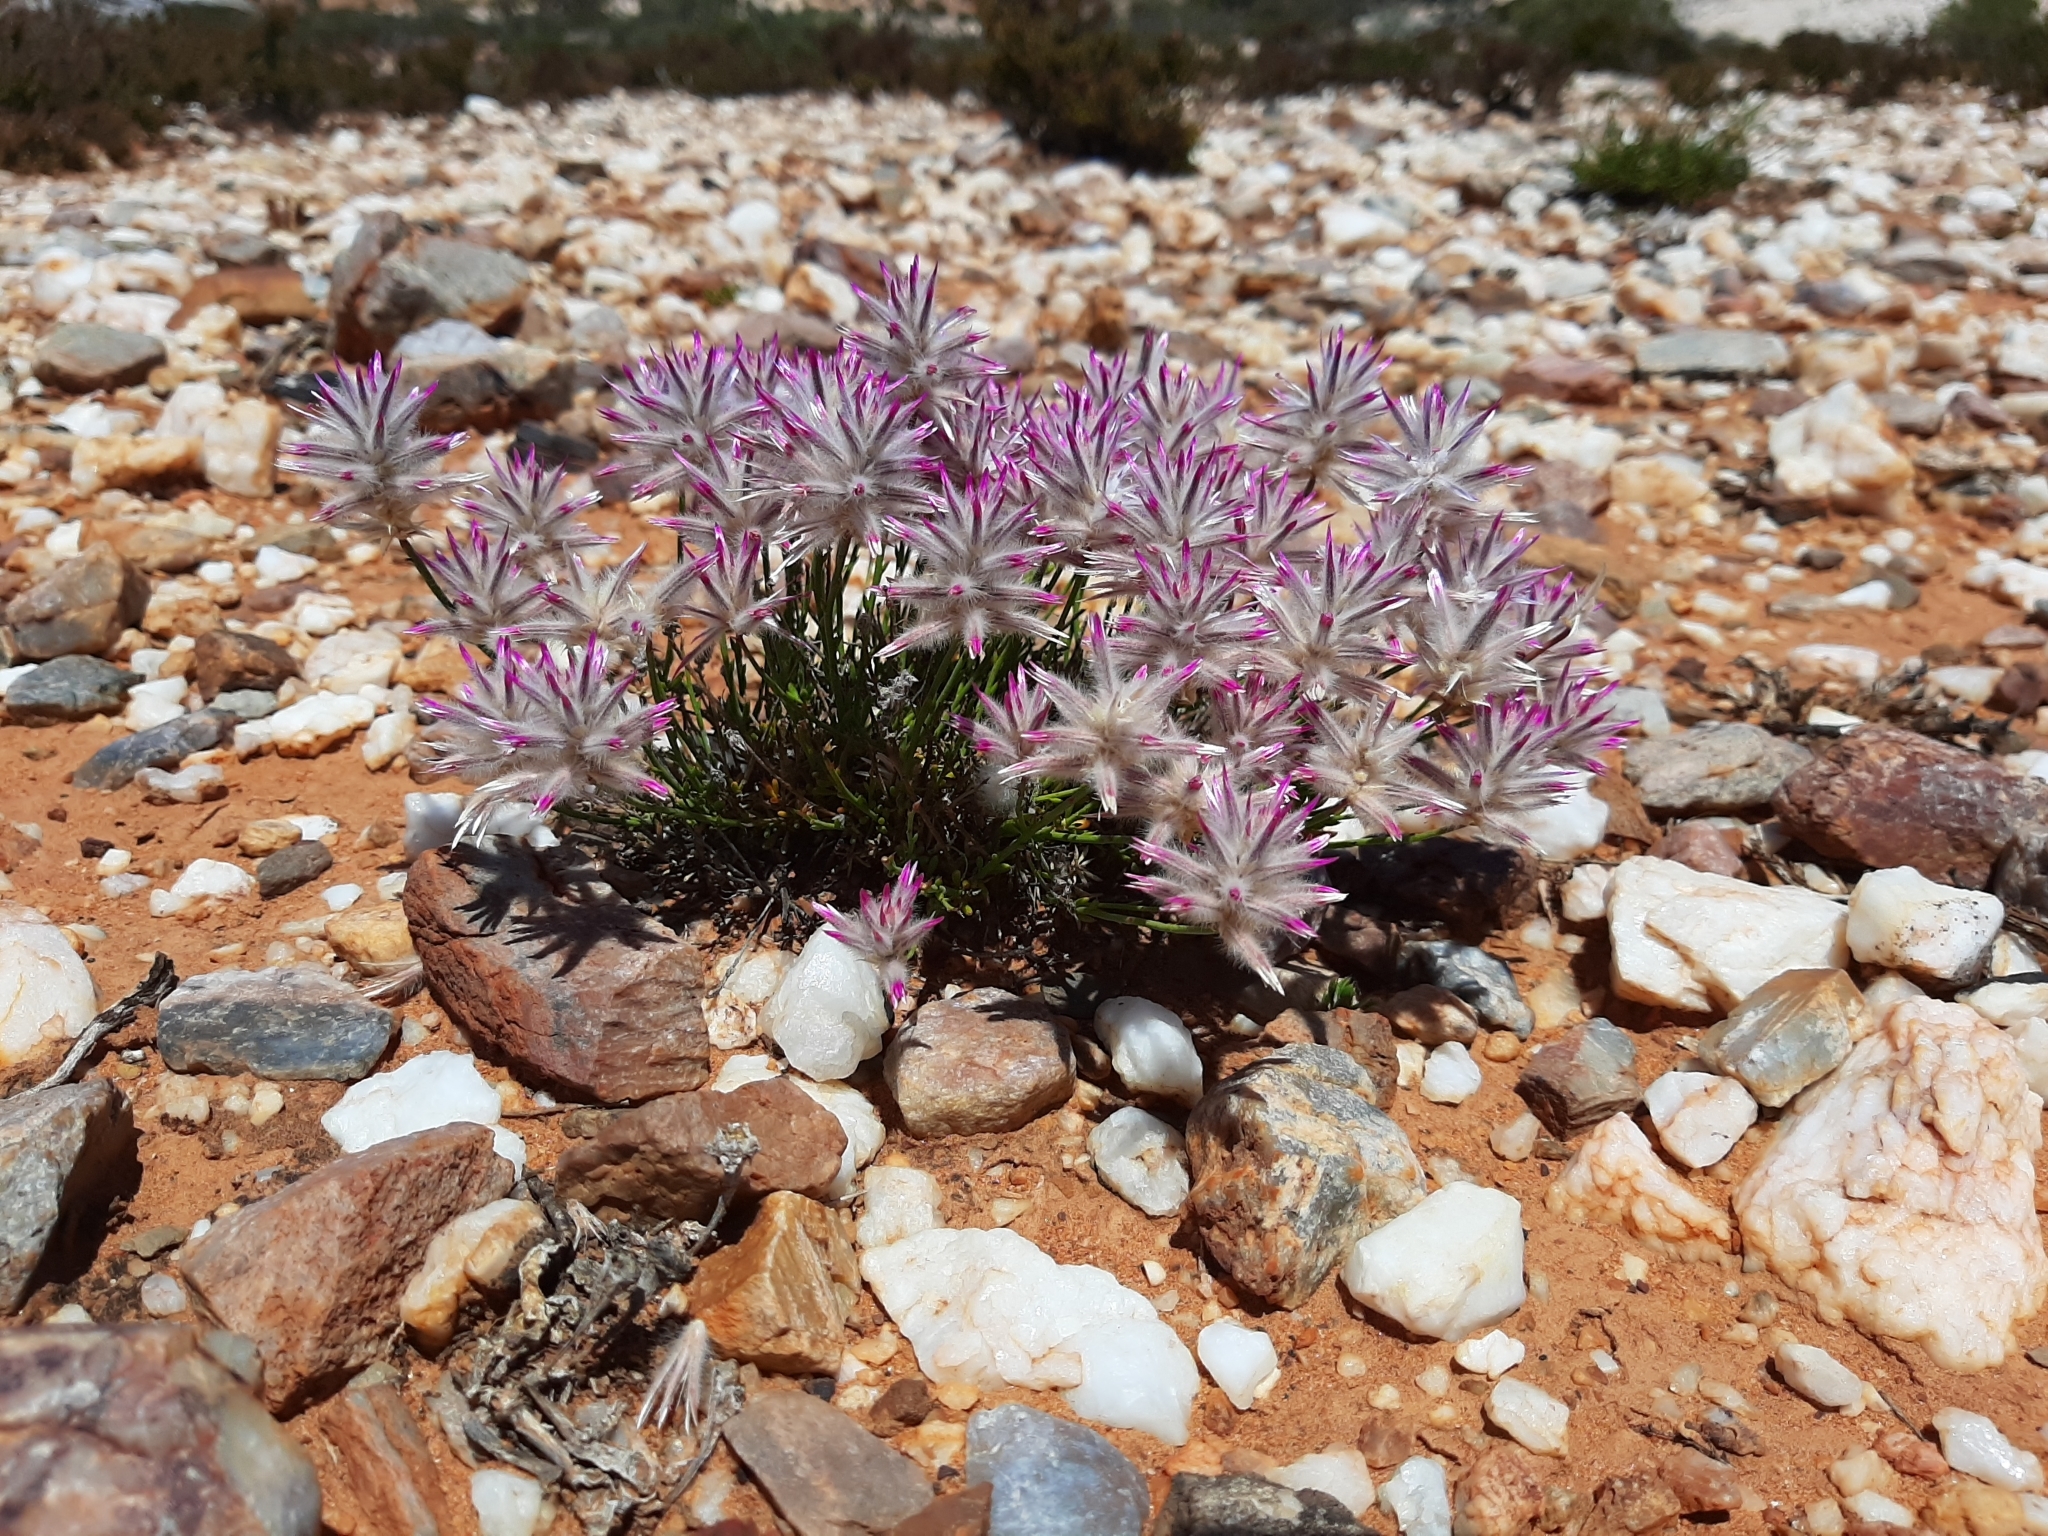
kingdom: Plantae
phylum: Tracheophyta
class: Magnoliopsida
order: Caryophyllales
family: Amaranthaceae
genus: Ptilotus
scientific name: Ptilotus rigidus
